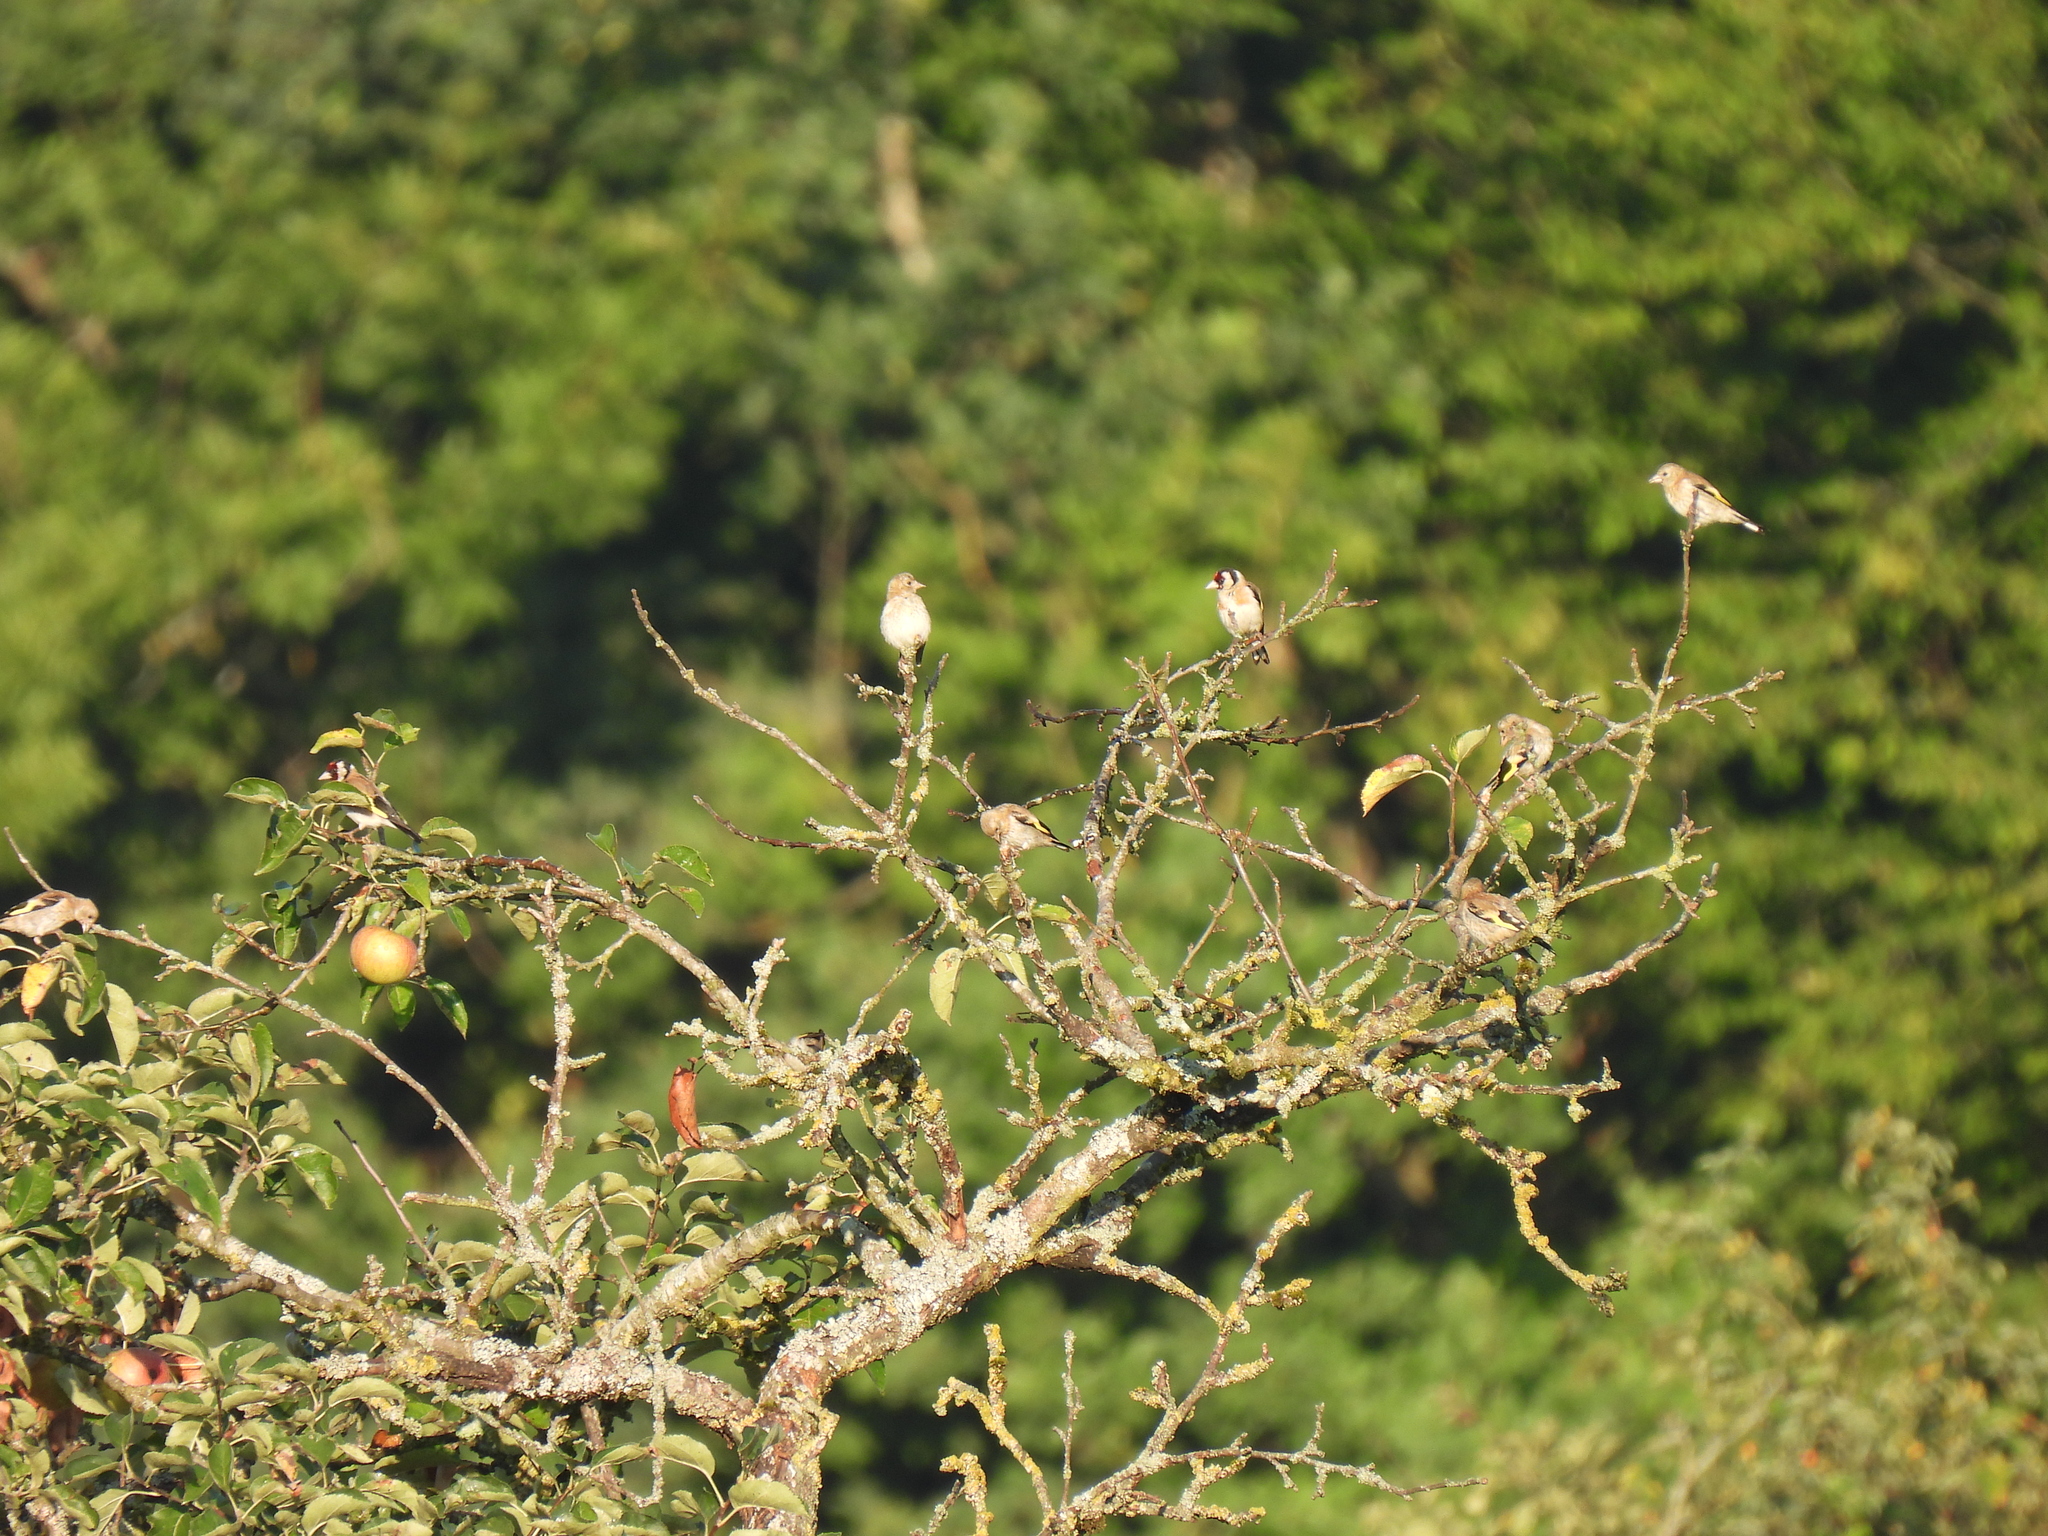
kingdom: Animalia
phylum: Chordata
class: Aves
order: Passeriformes
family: Fringillidae
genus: Carduelis
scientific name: Carduelis carduelis
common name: European goldfinch
